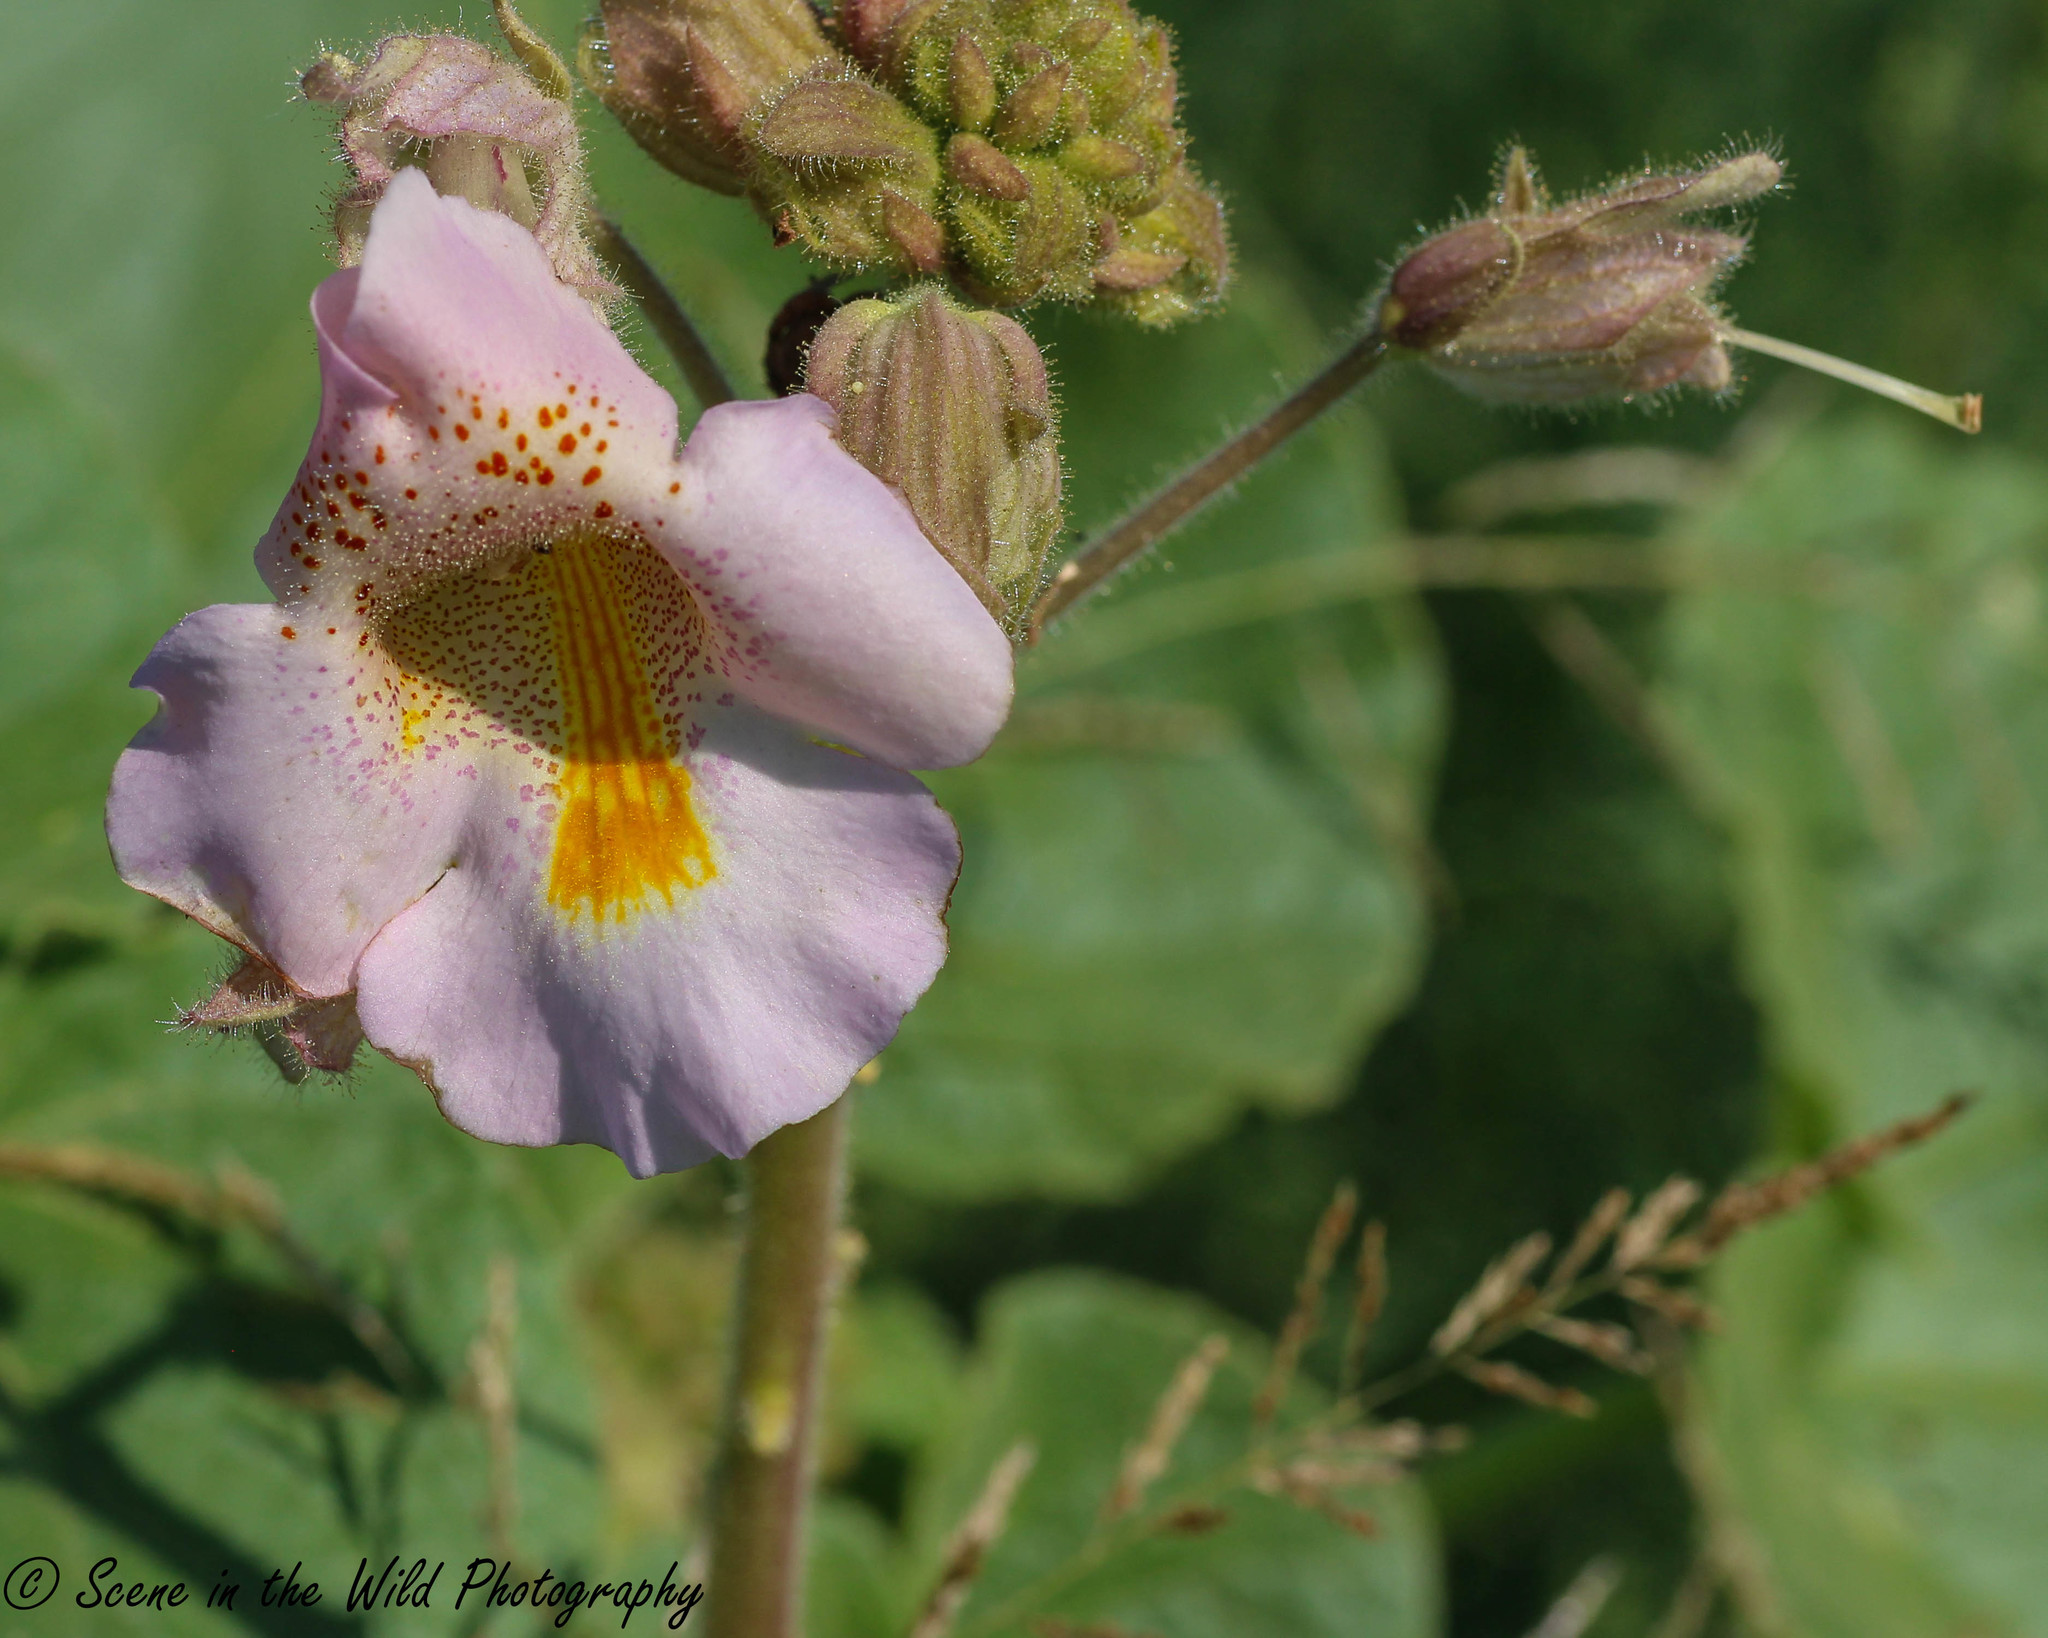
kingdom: Plantae
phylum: Tracheophyta
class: Magnoliopsida
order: Lamiales
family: Martyniaceae
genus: Proboscidea
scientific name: Proboscidea louisianica
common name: Elephant tusks
